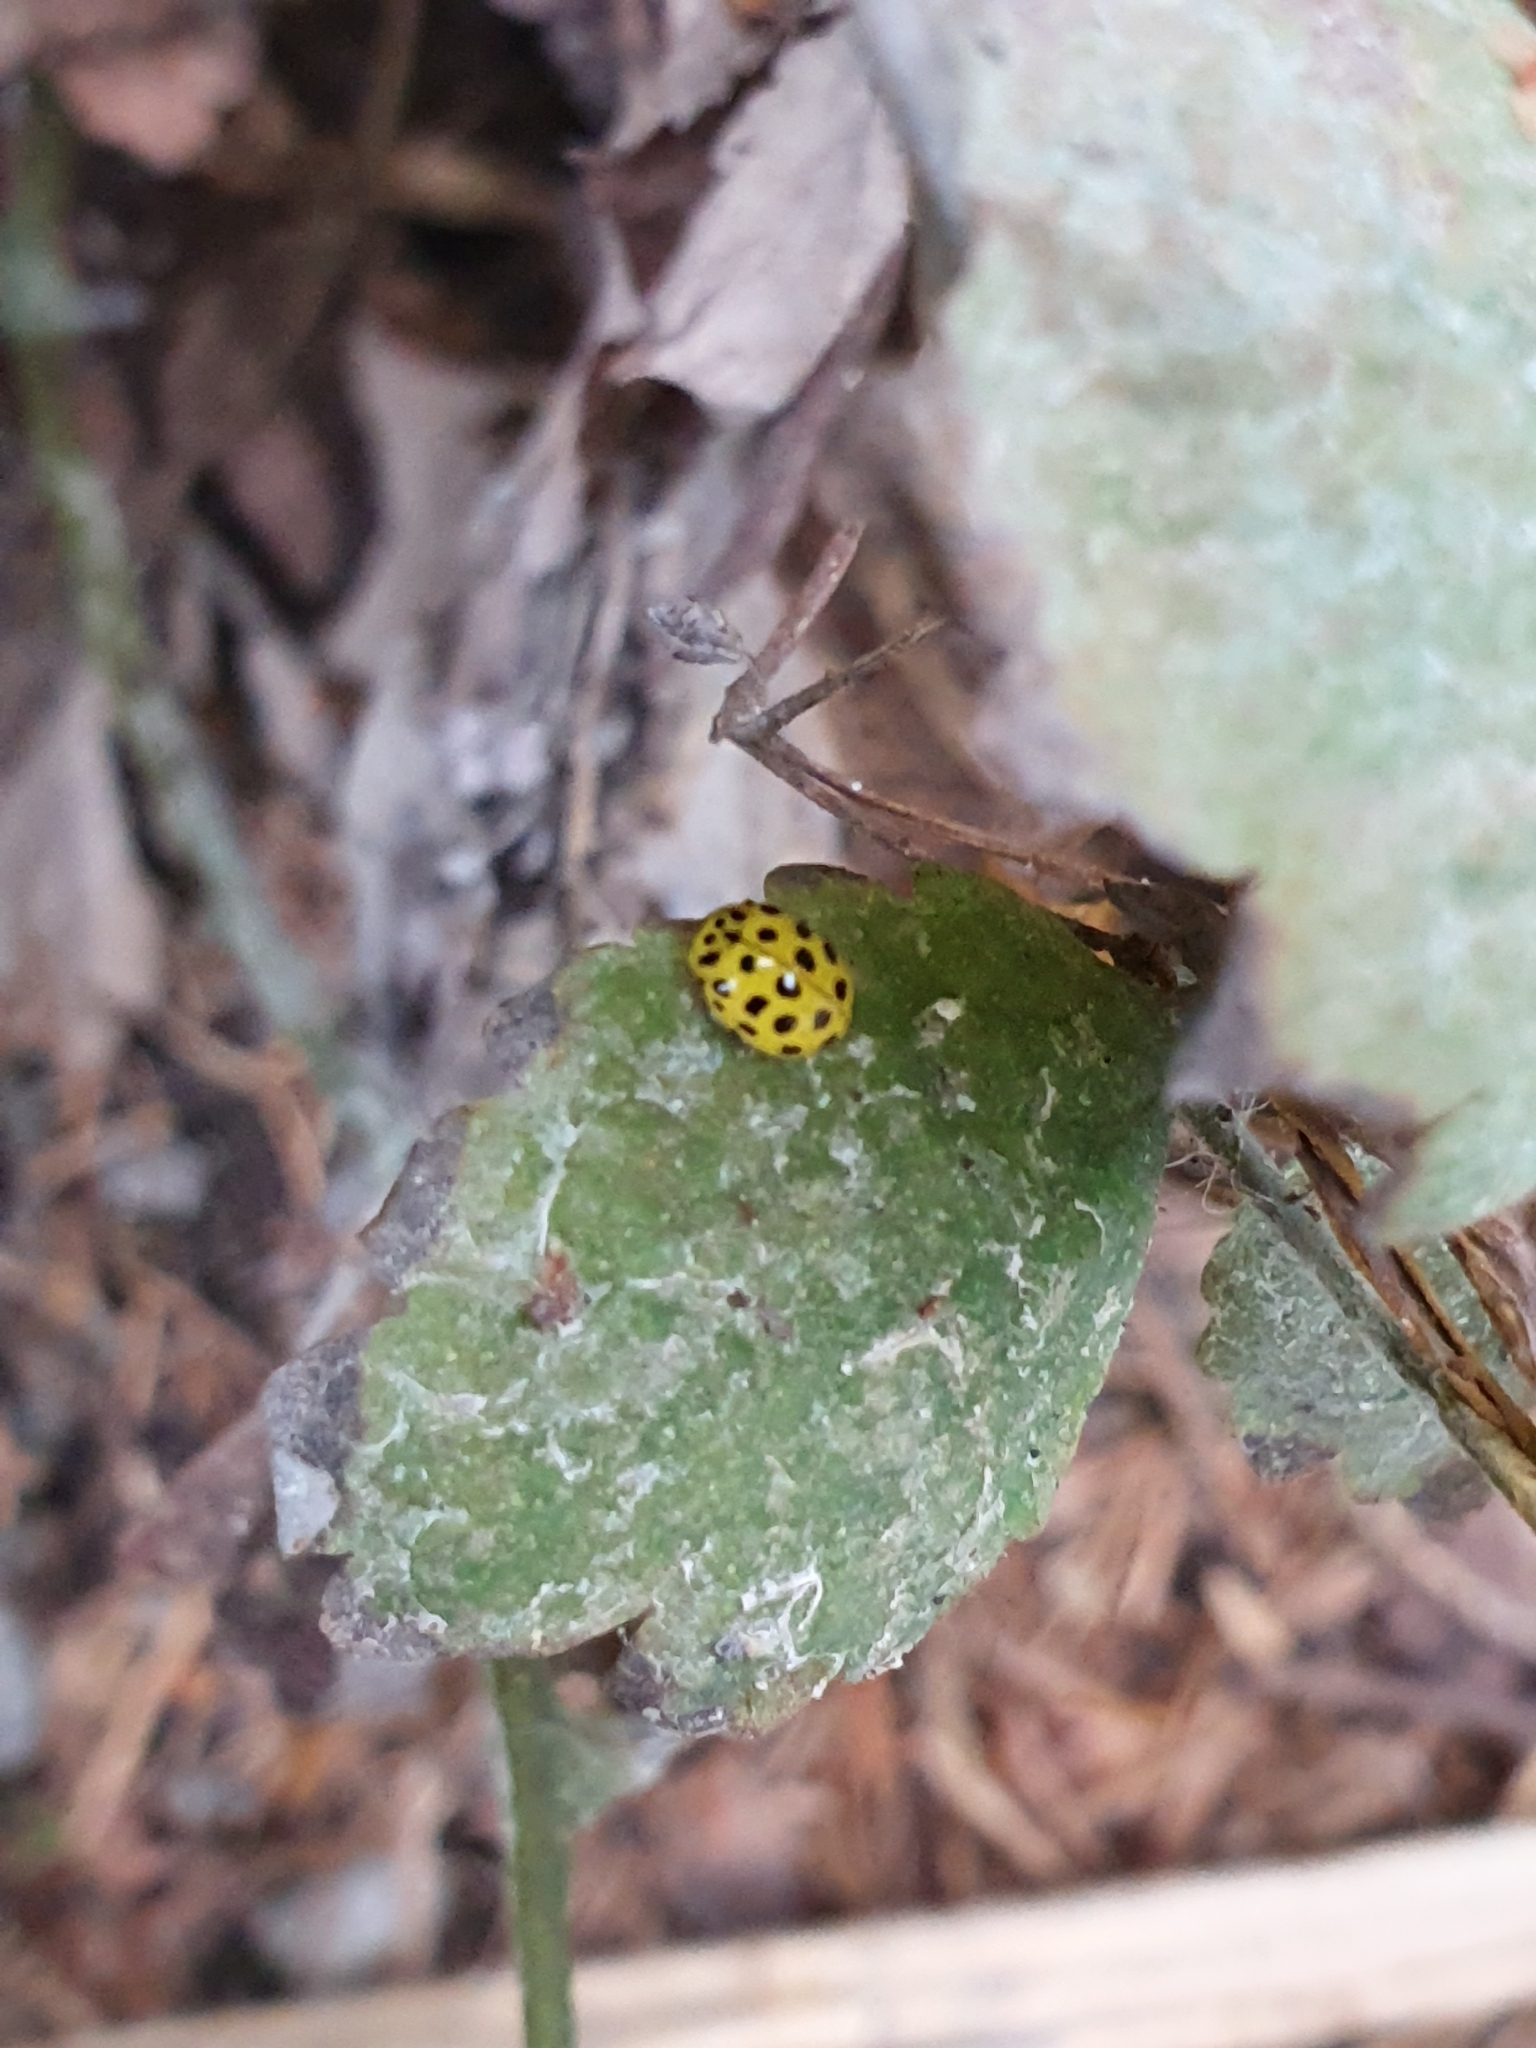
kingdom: Animalia
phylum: Arthropoda
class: Insecta
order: Coleoptera
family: Coccinellidae
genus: Psyllobora
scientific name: Psyllobora vigintiduopunctata
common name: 22-spot ladybird
